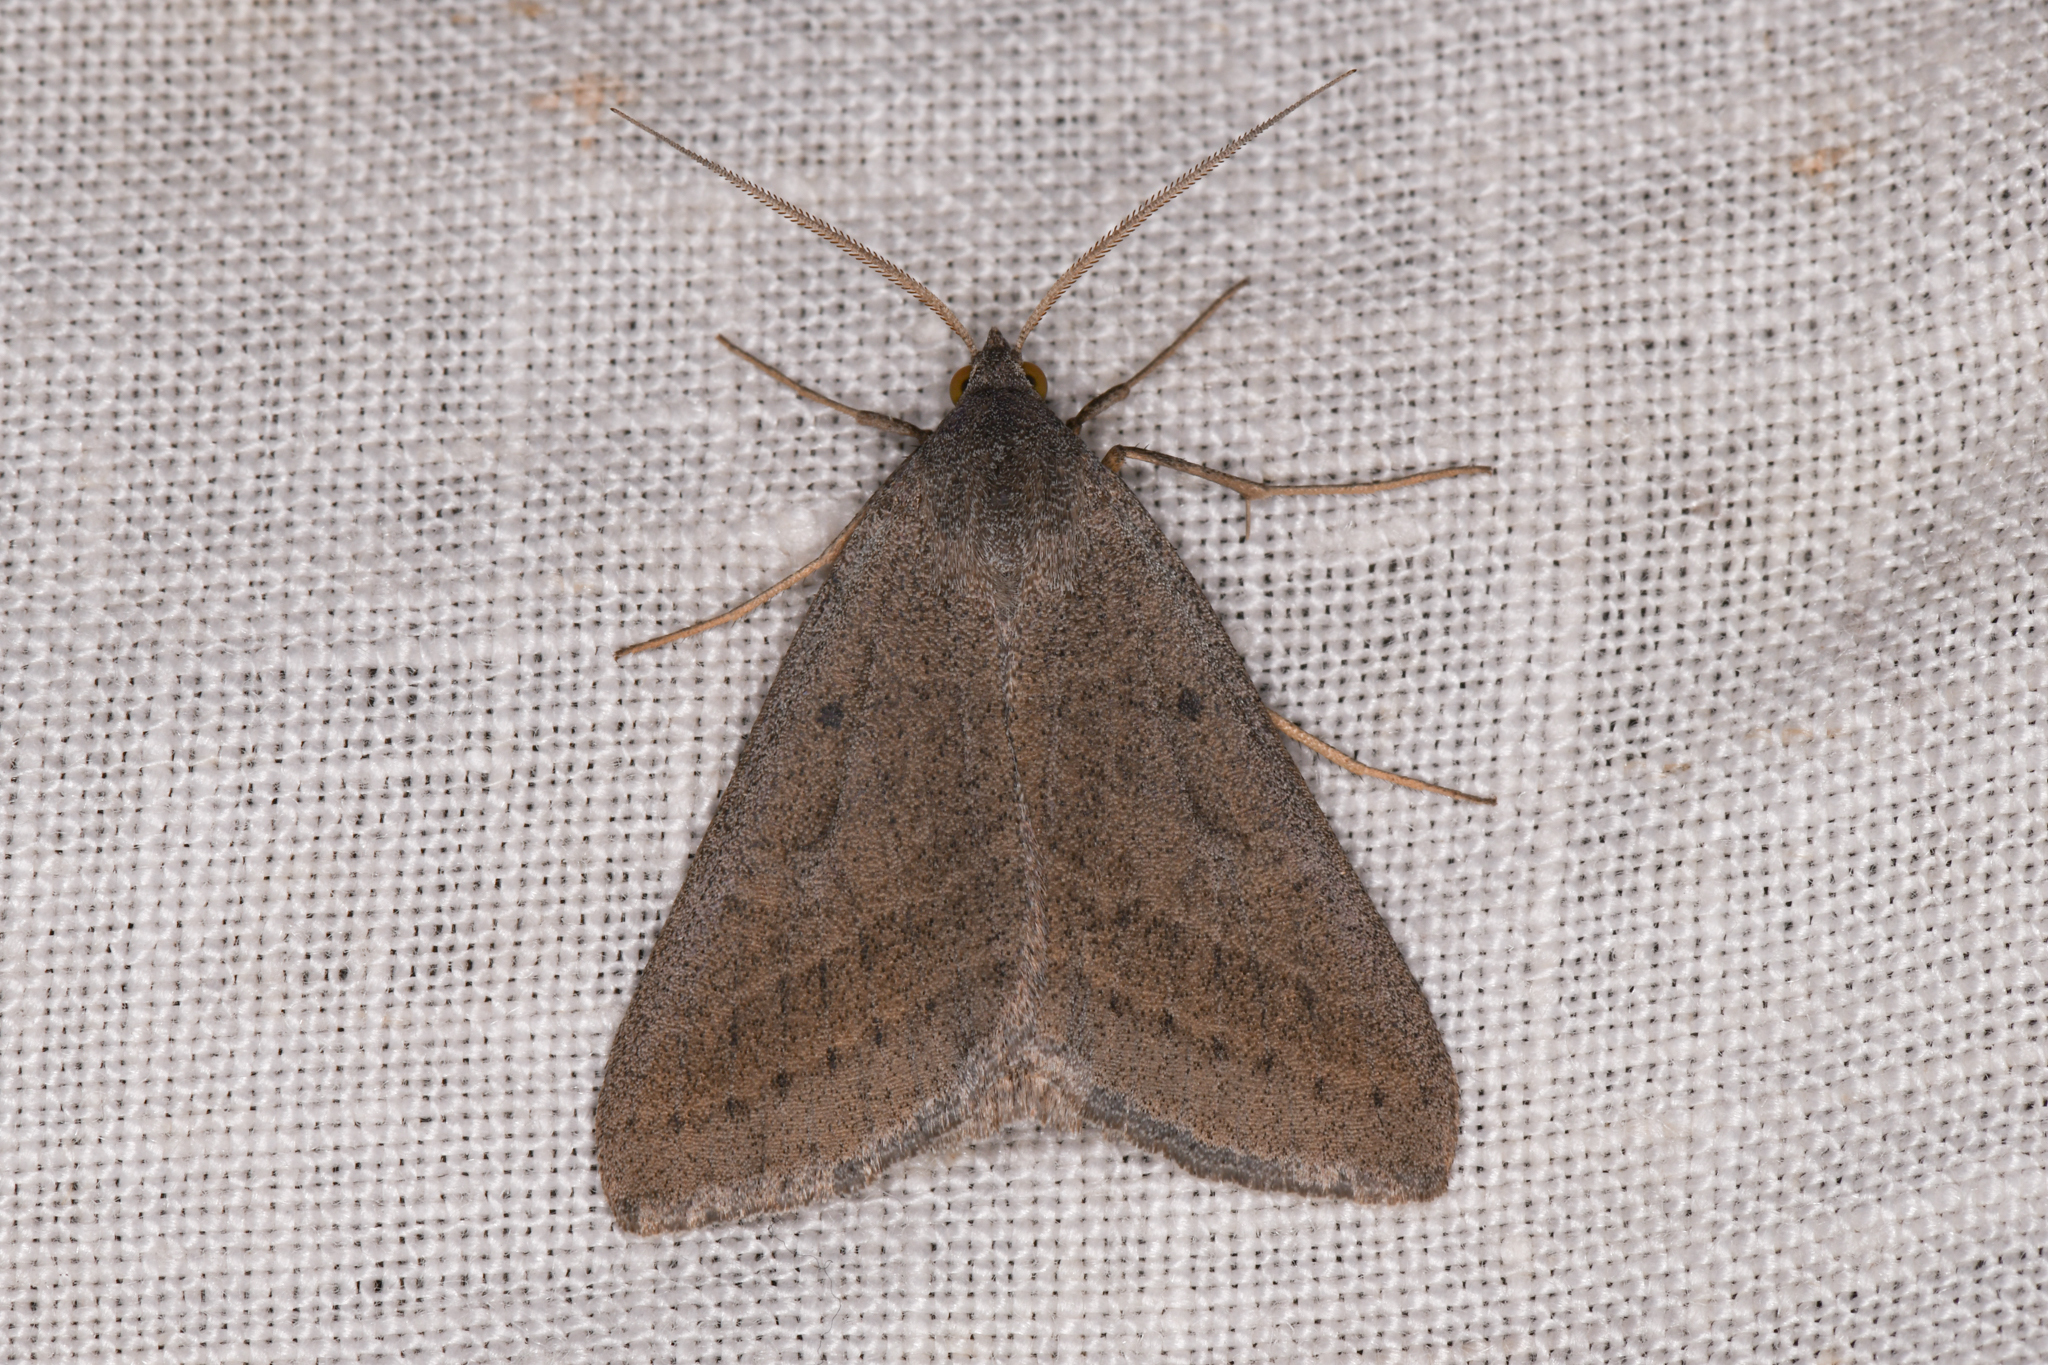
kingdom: Animalia
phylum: Arthropoda
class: Insecta
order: Lepidoptera
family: Erebidae
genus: Caenurgia
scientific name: Caenurgia togataria
